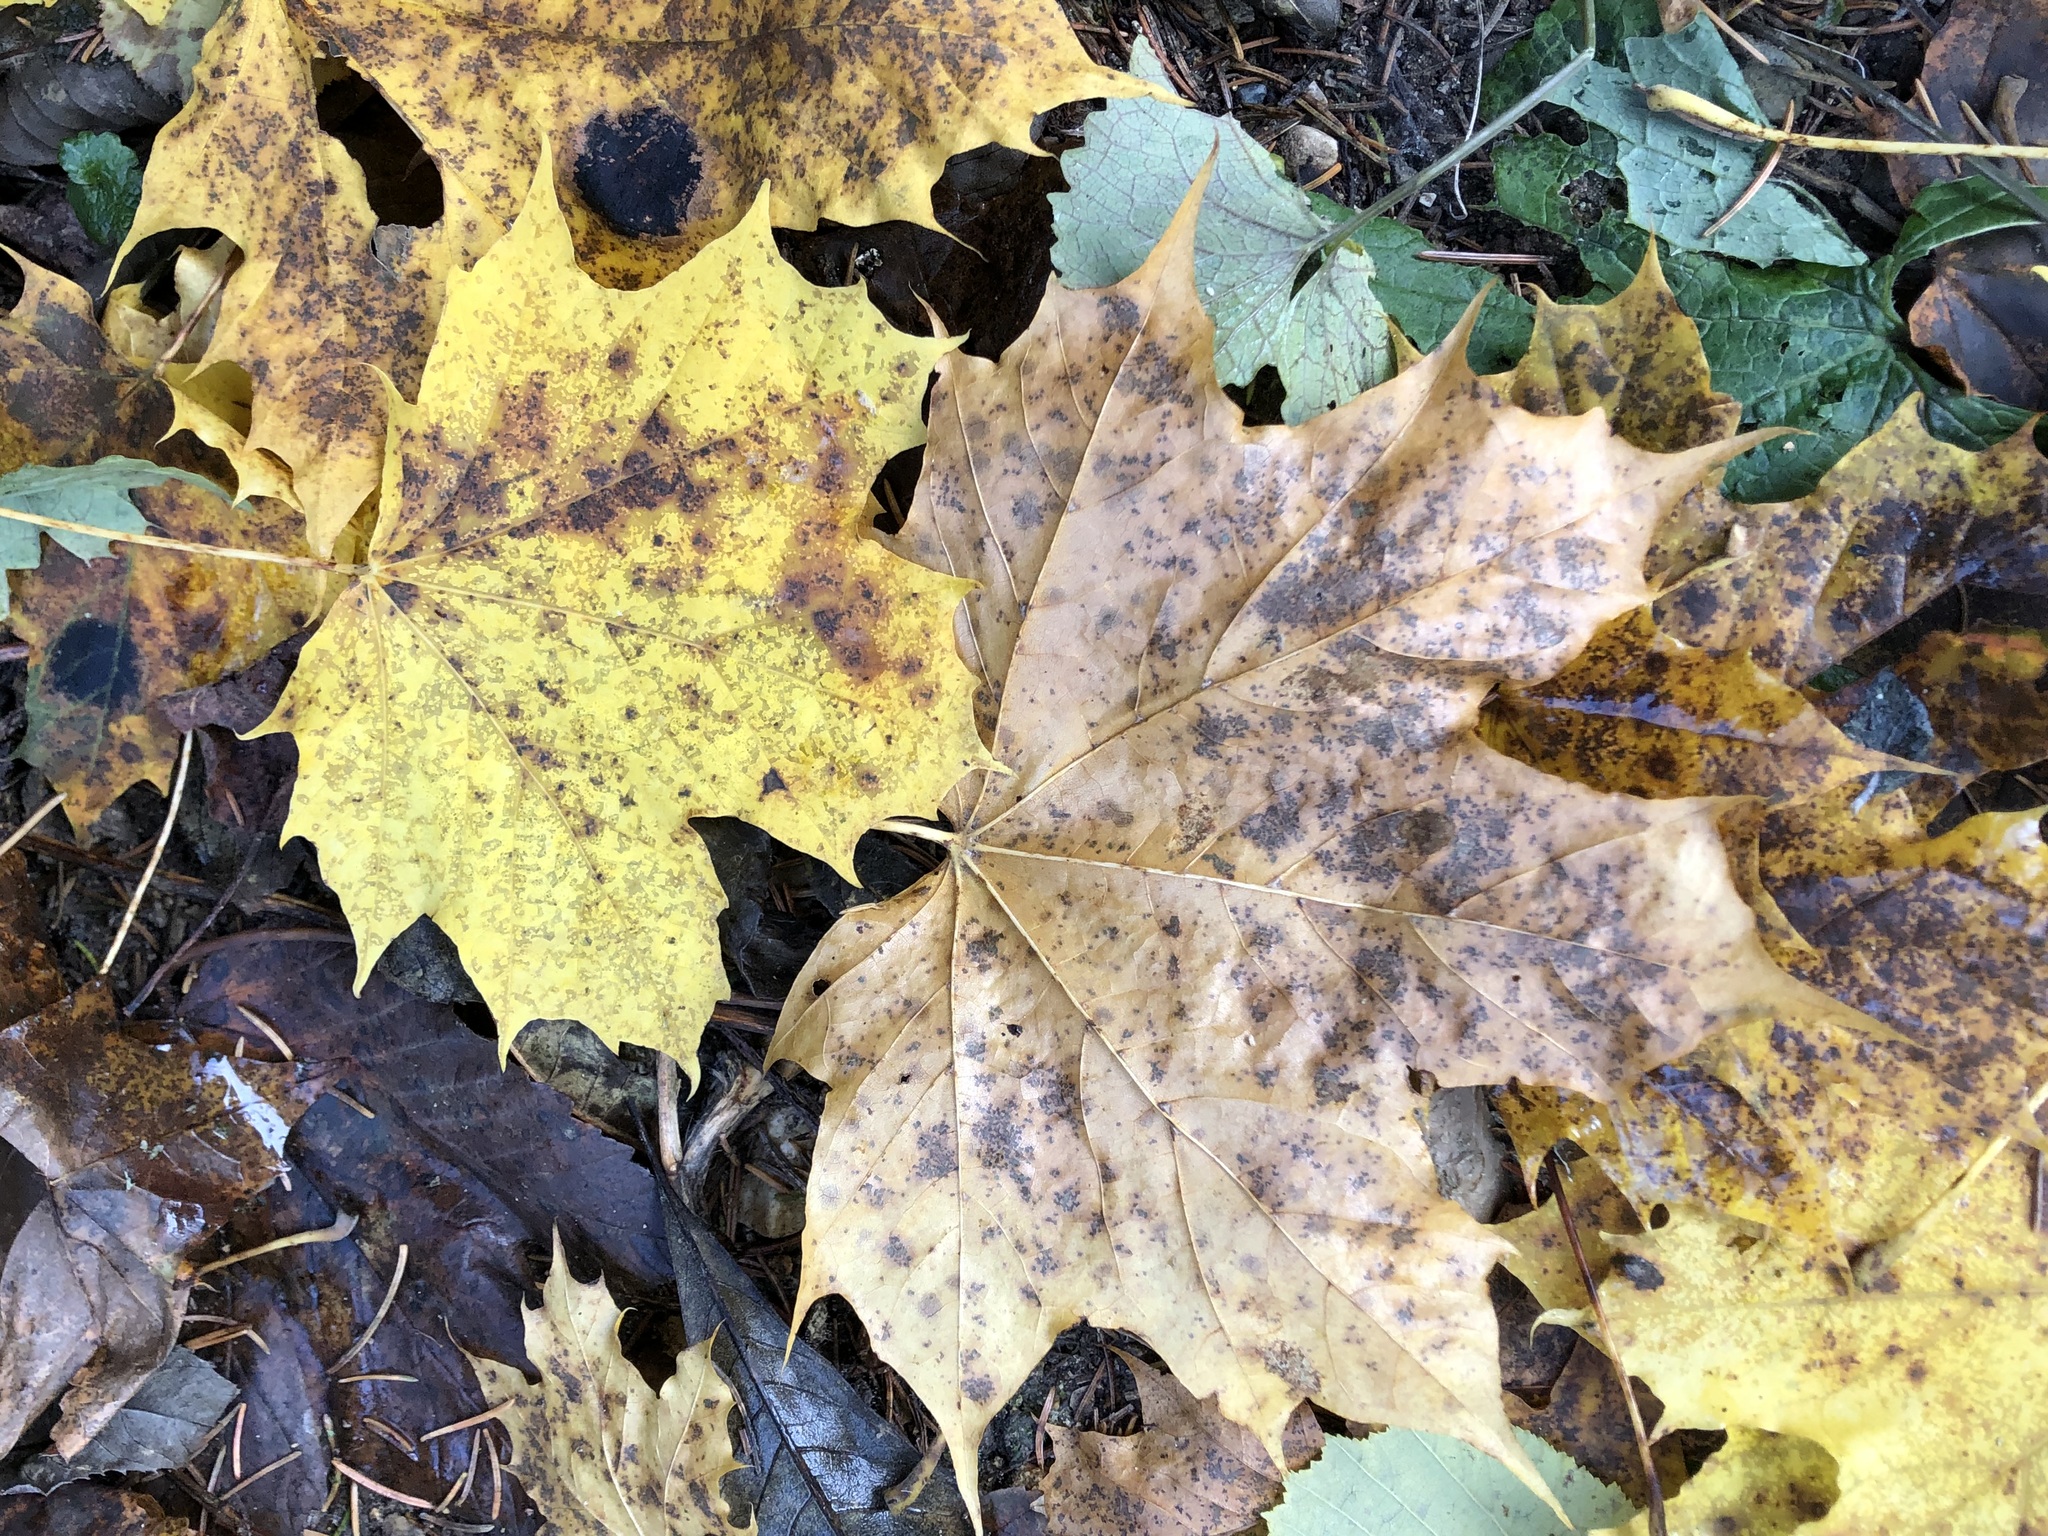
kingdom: Plantae
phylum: Tracheophyta
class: Magnoliopsida
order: Sapindales
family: Sapindaceae
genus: Acer
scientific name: Acer platanoides
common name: Norway maple
